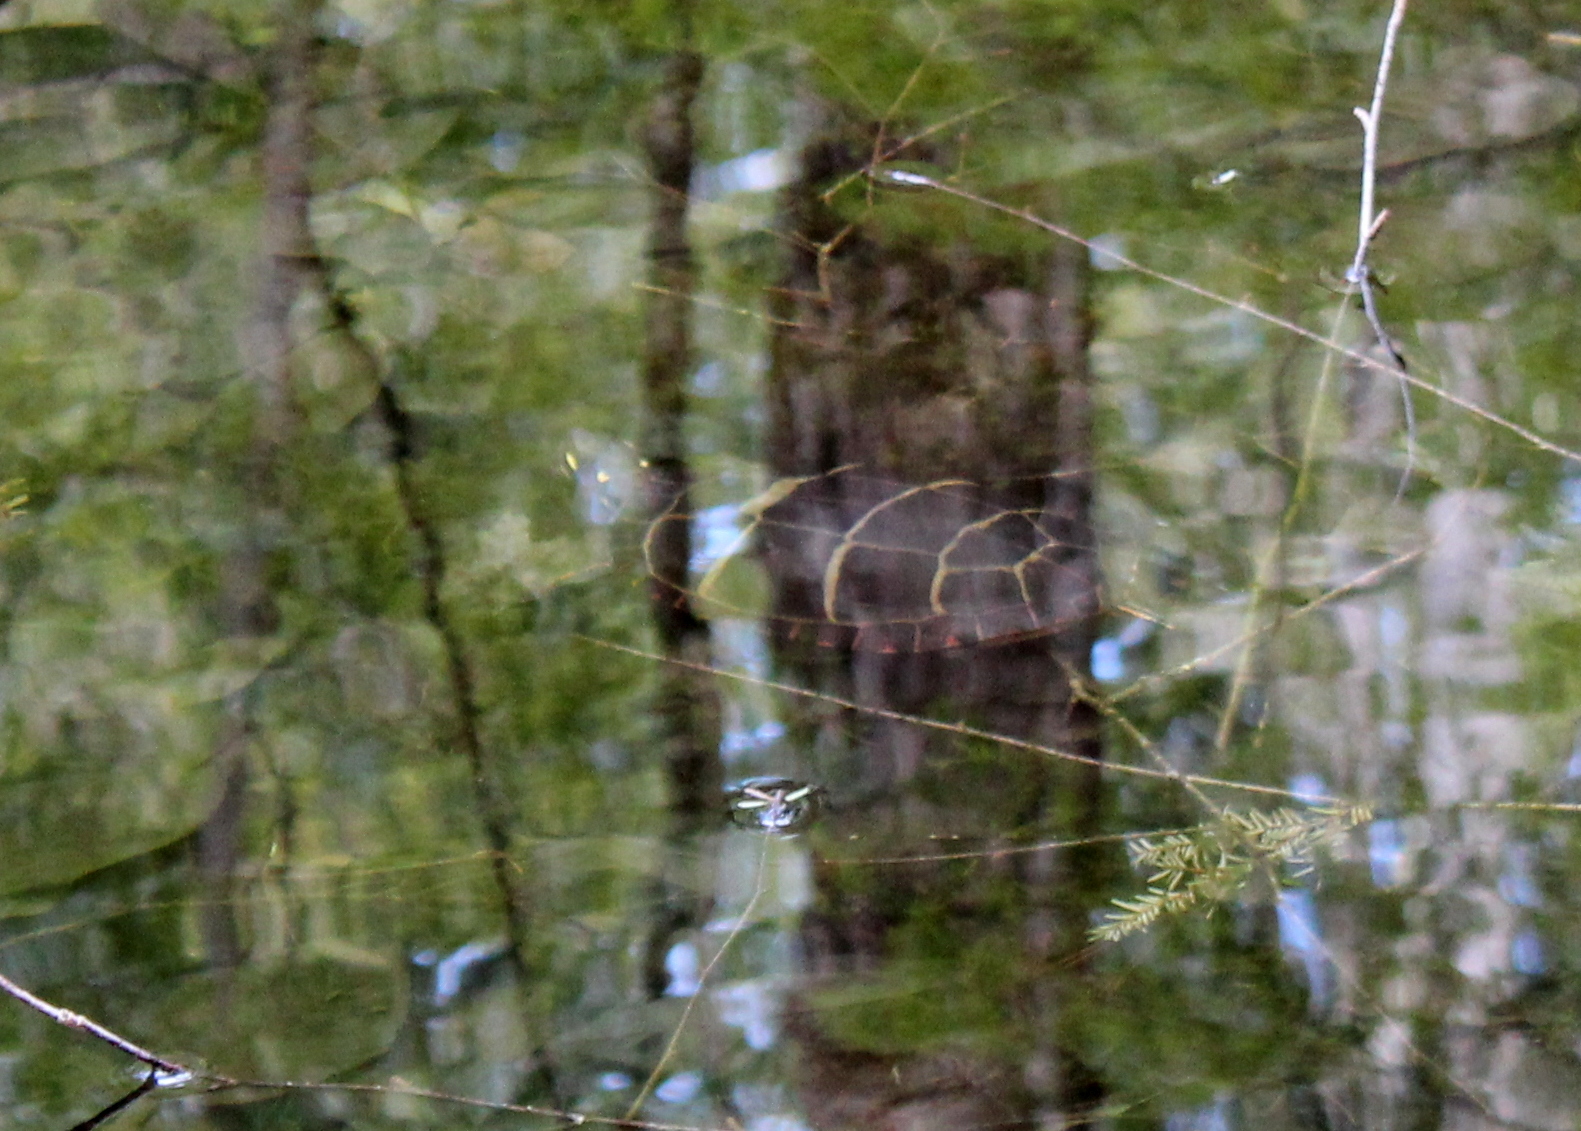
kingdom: Animalia
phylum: Chordata
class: Testudines
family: Emydidae
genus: Chrysemys
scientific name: Chrysemys picta
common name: Painted turtle
